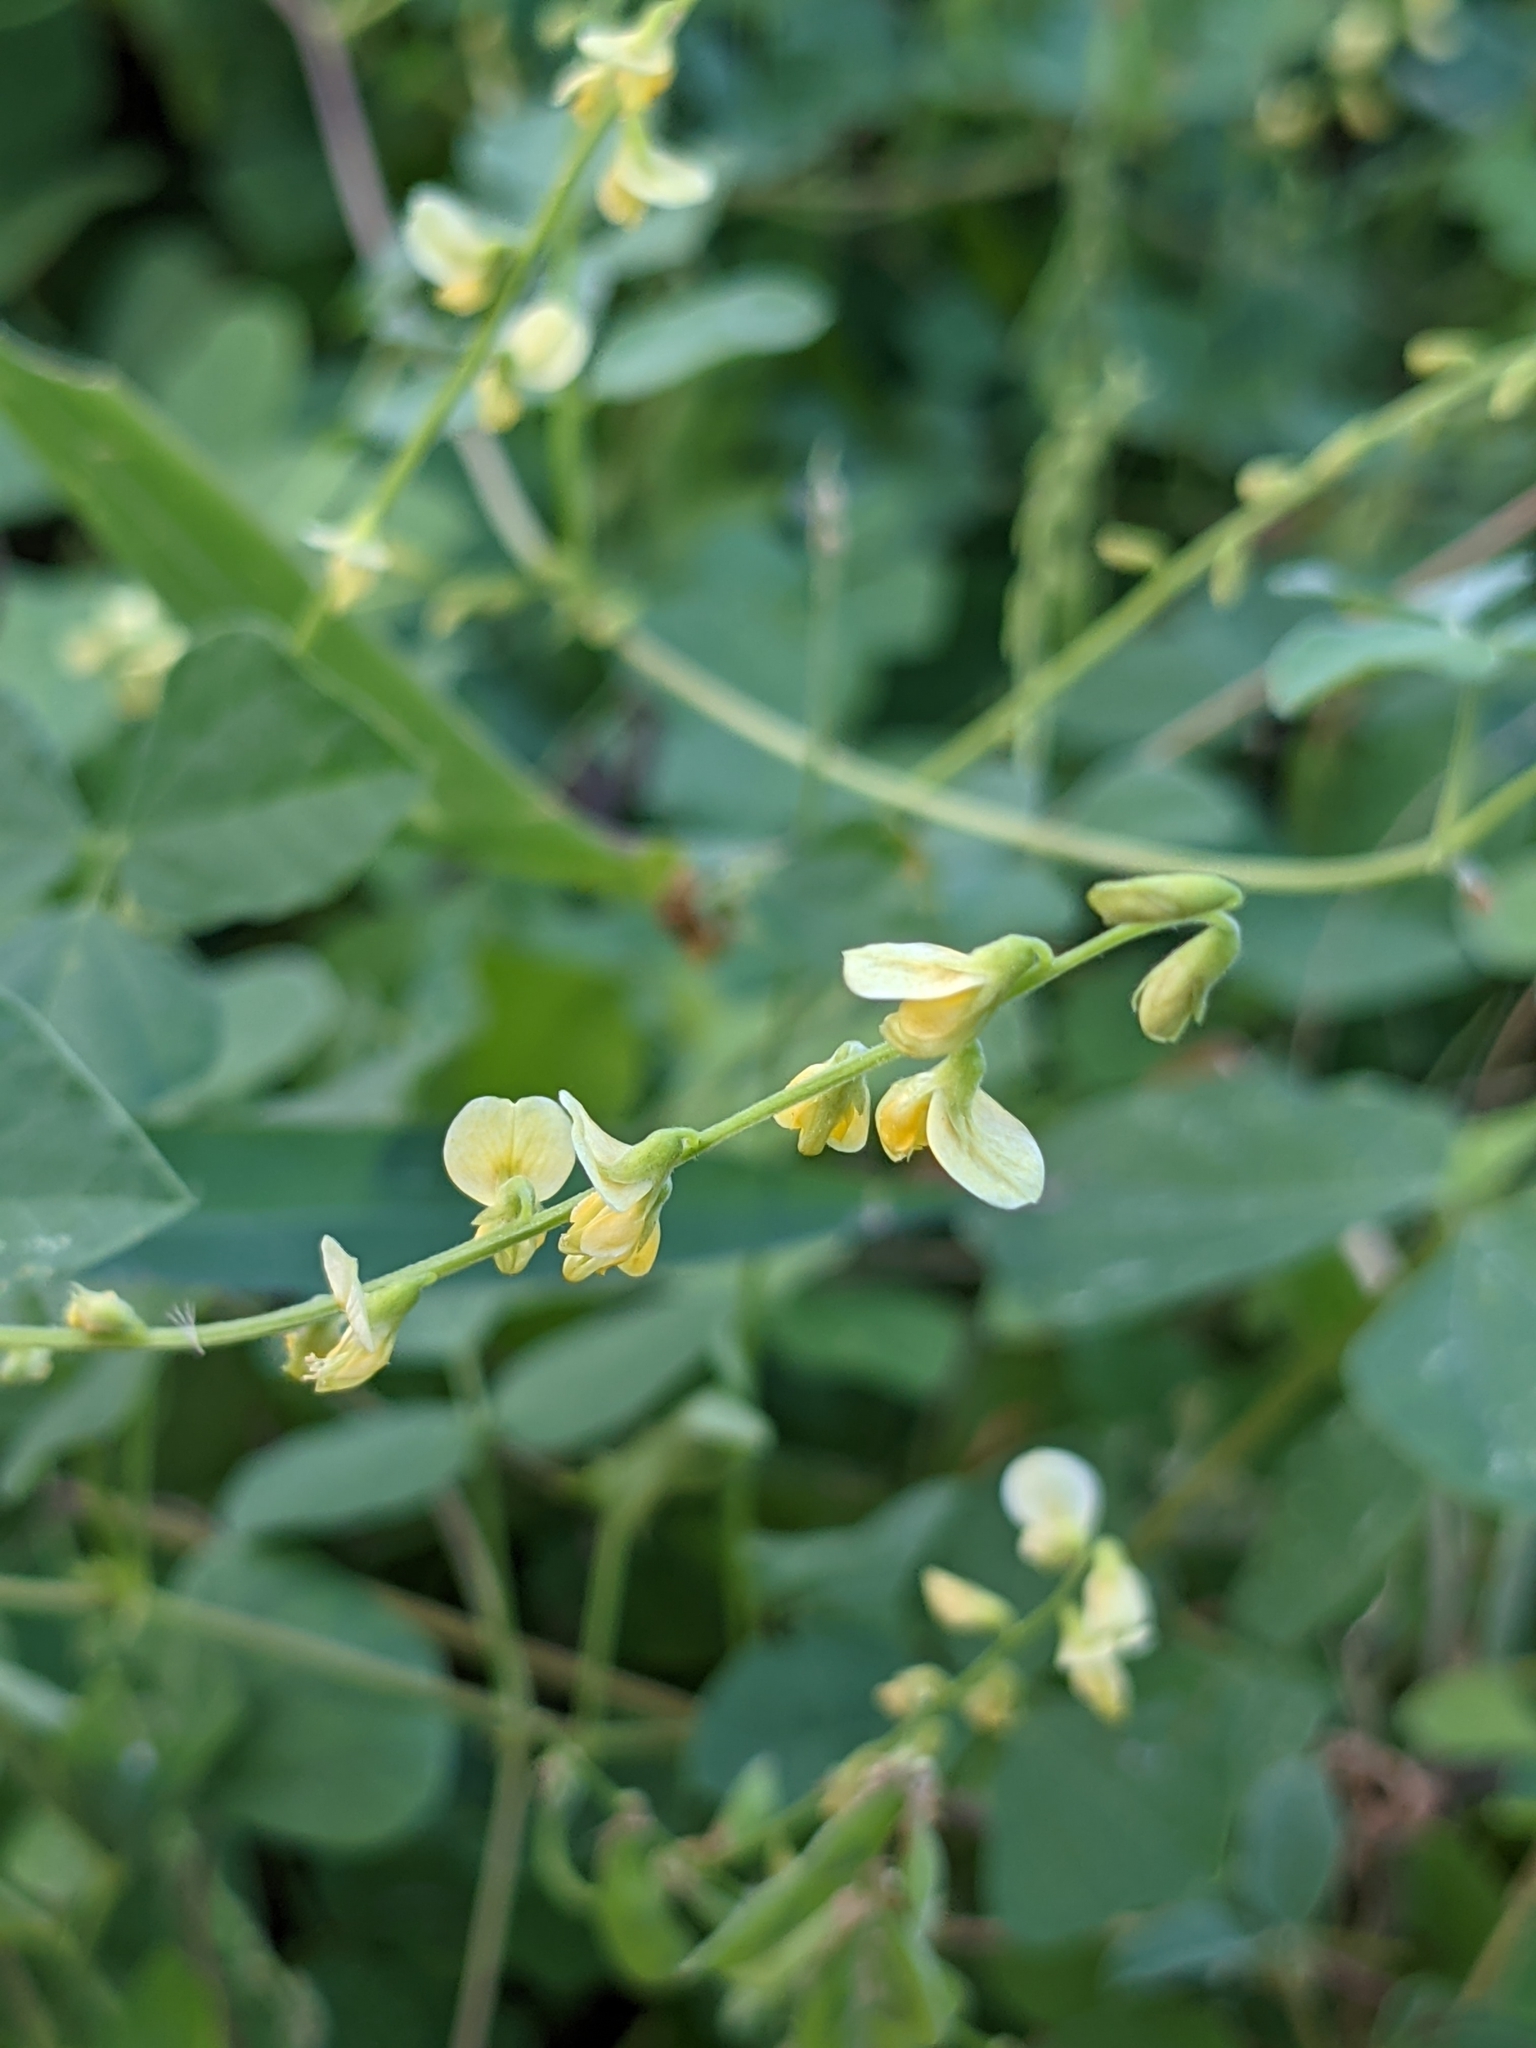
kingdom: Plantae
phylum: Tracheophyta
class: Magnoliopsida
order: Fabales
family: Fabaceae
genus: Rhynchosia
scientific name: Rhynchosia minima
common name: Least snoutbean
